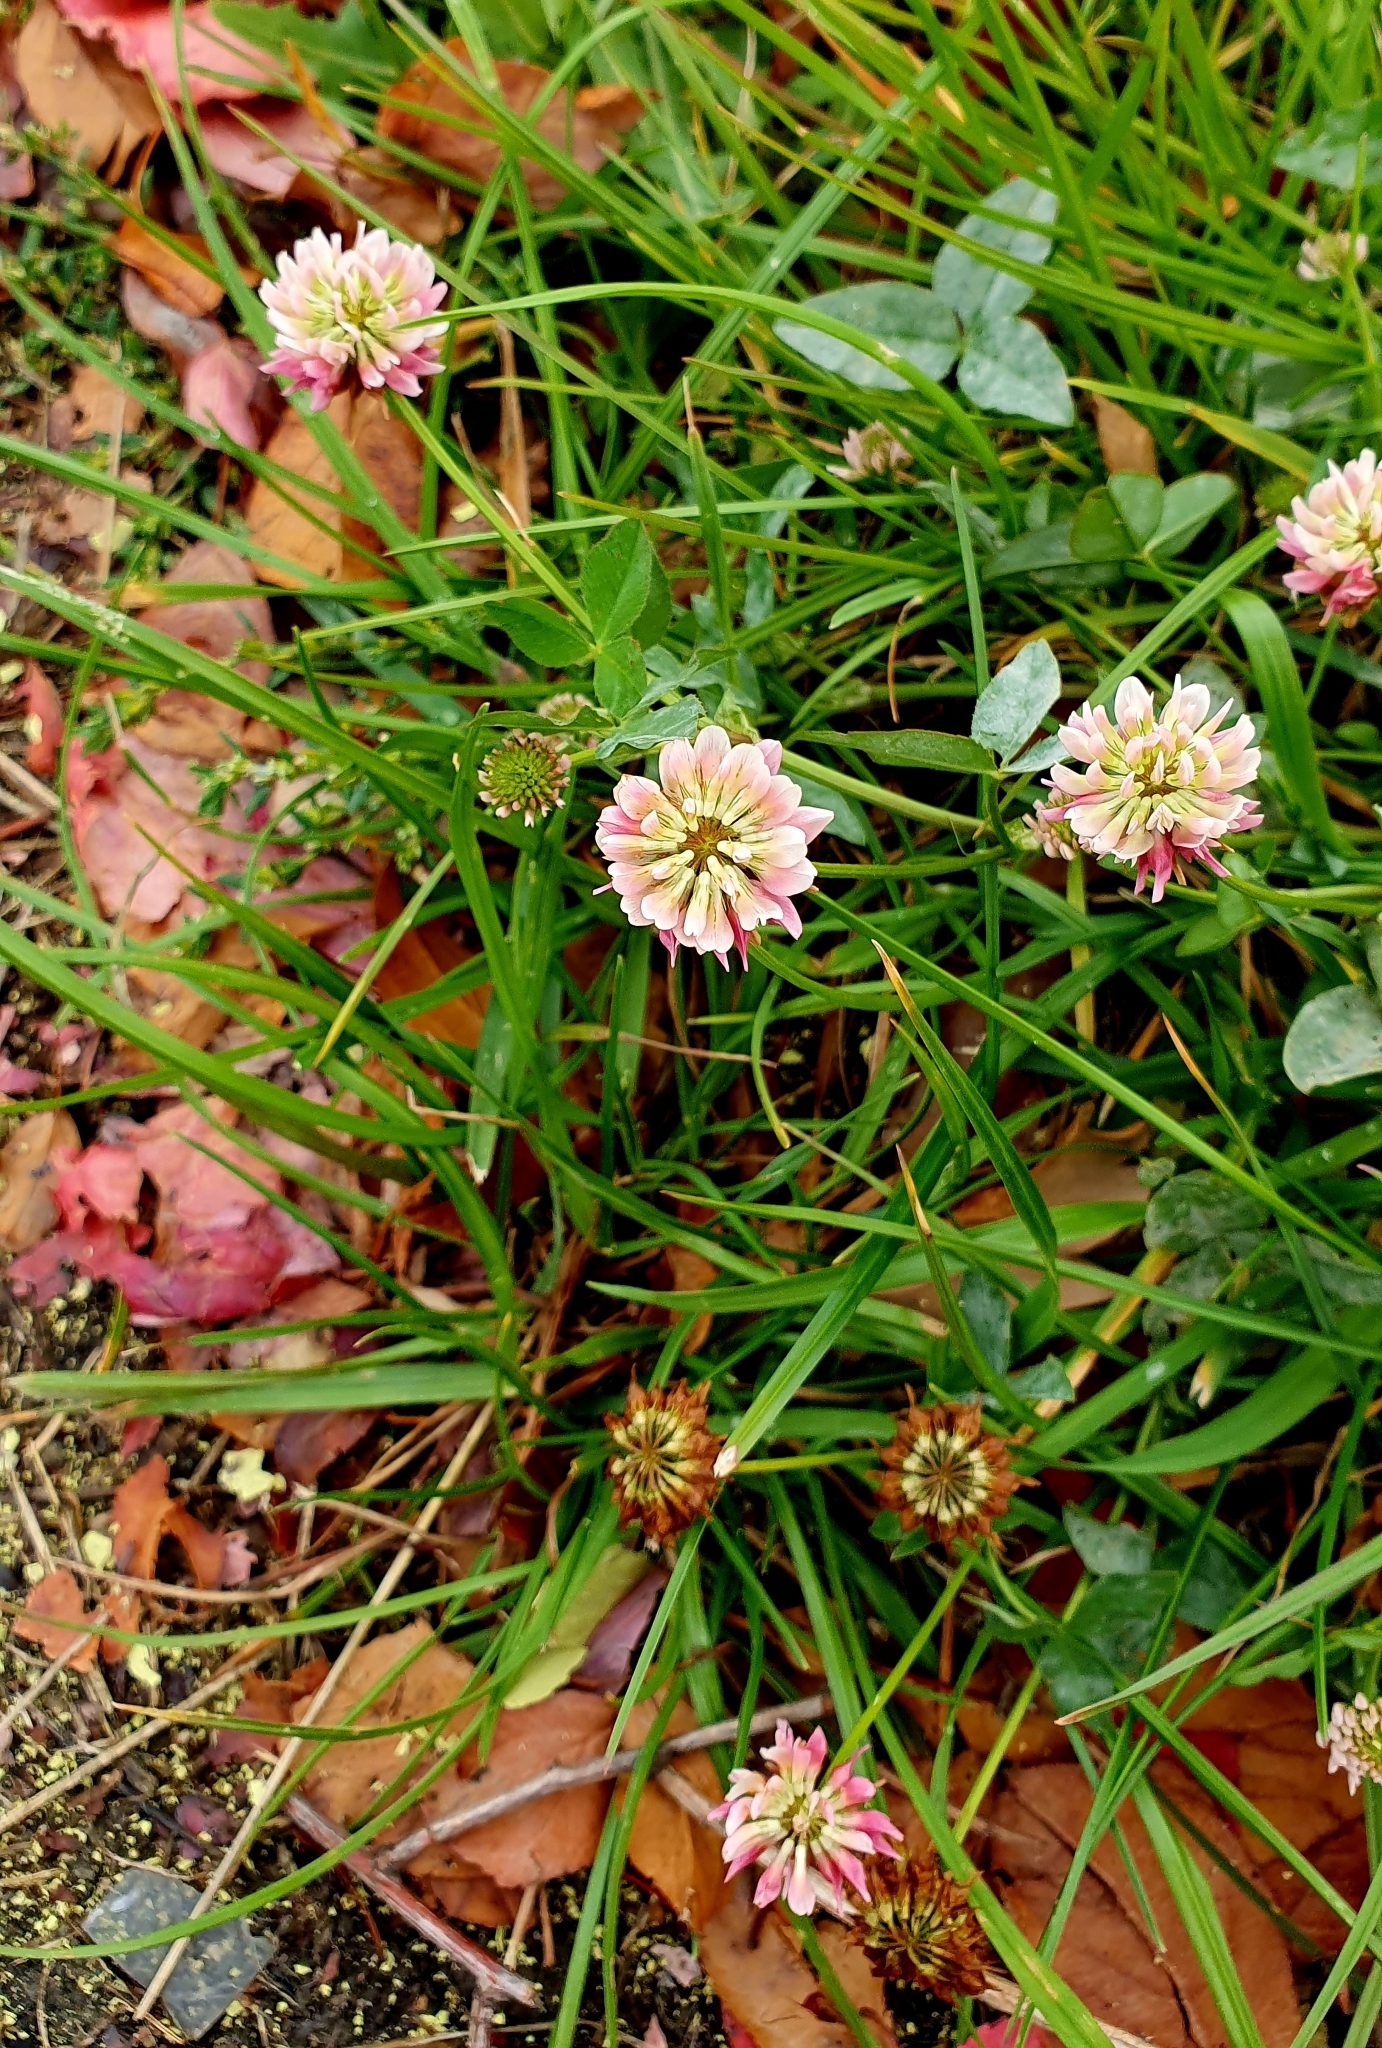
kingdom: Plantae
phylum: Tracheophyta
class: Magnoliopsida
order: Fabales
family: Fabaceae
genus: Trifolium
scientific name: Trifolium hybridum
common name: Alsike clover
